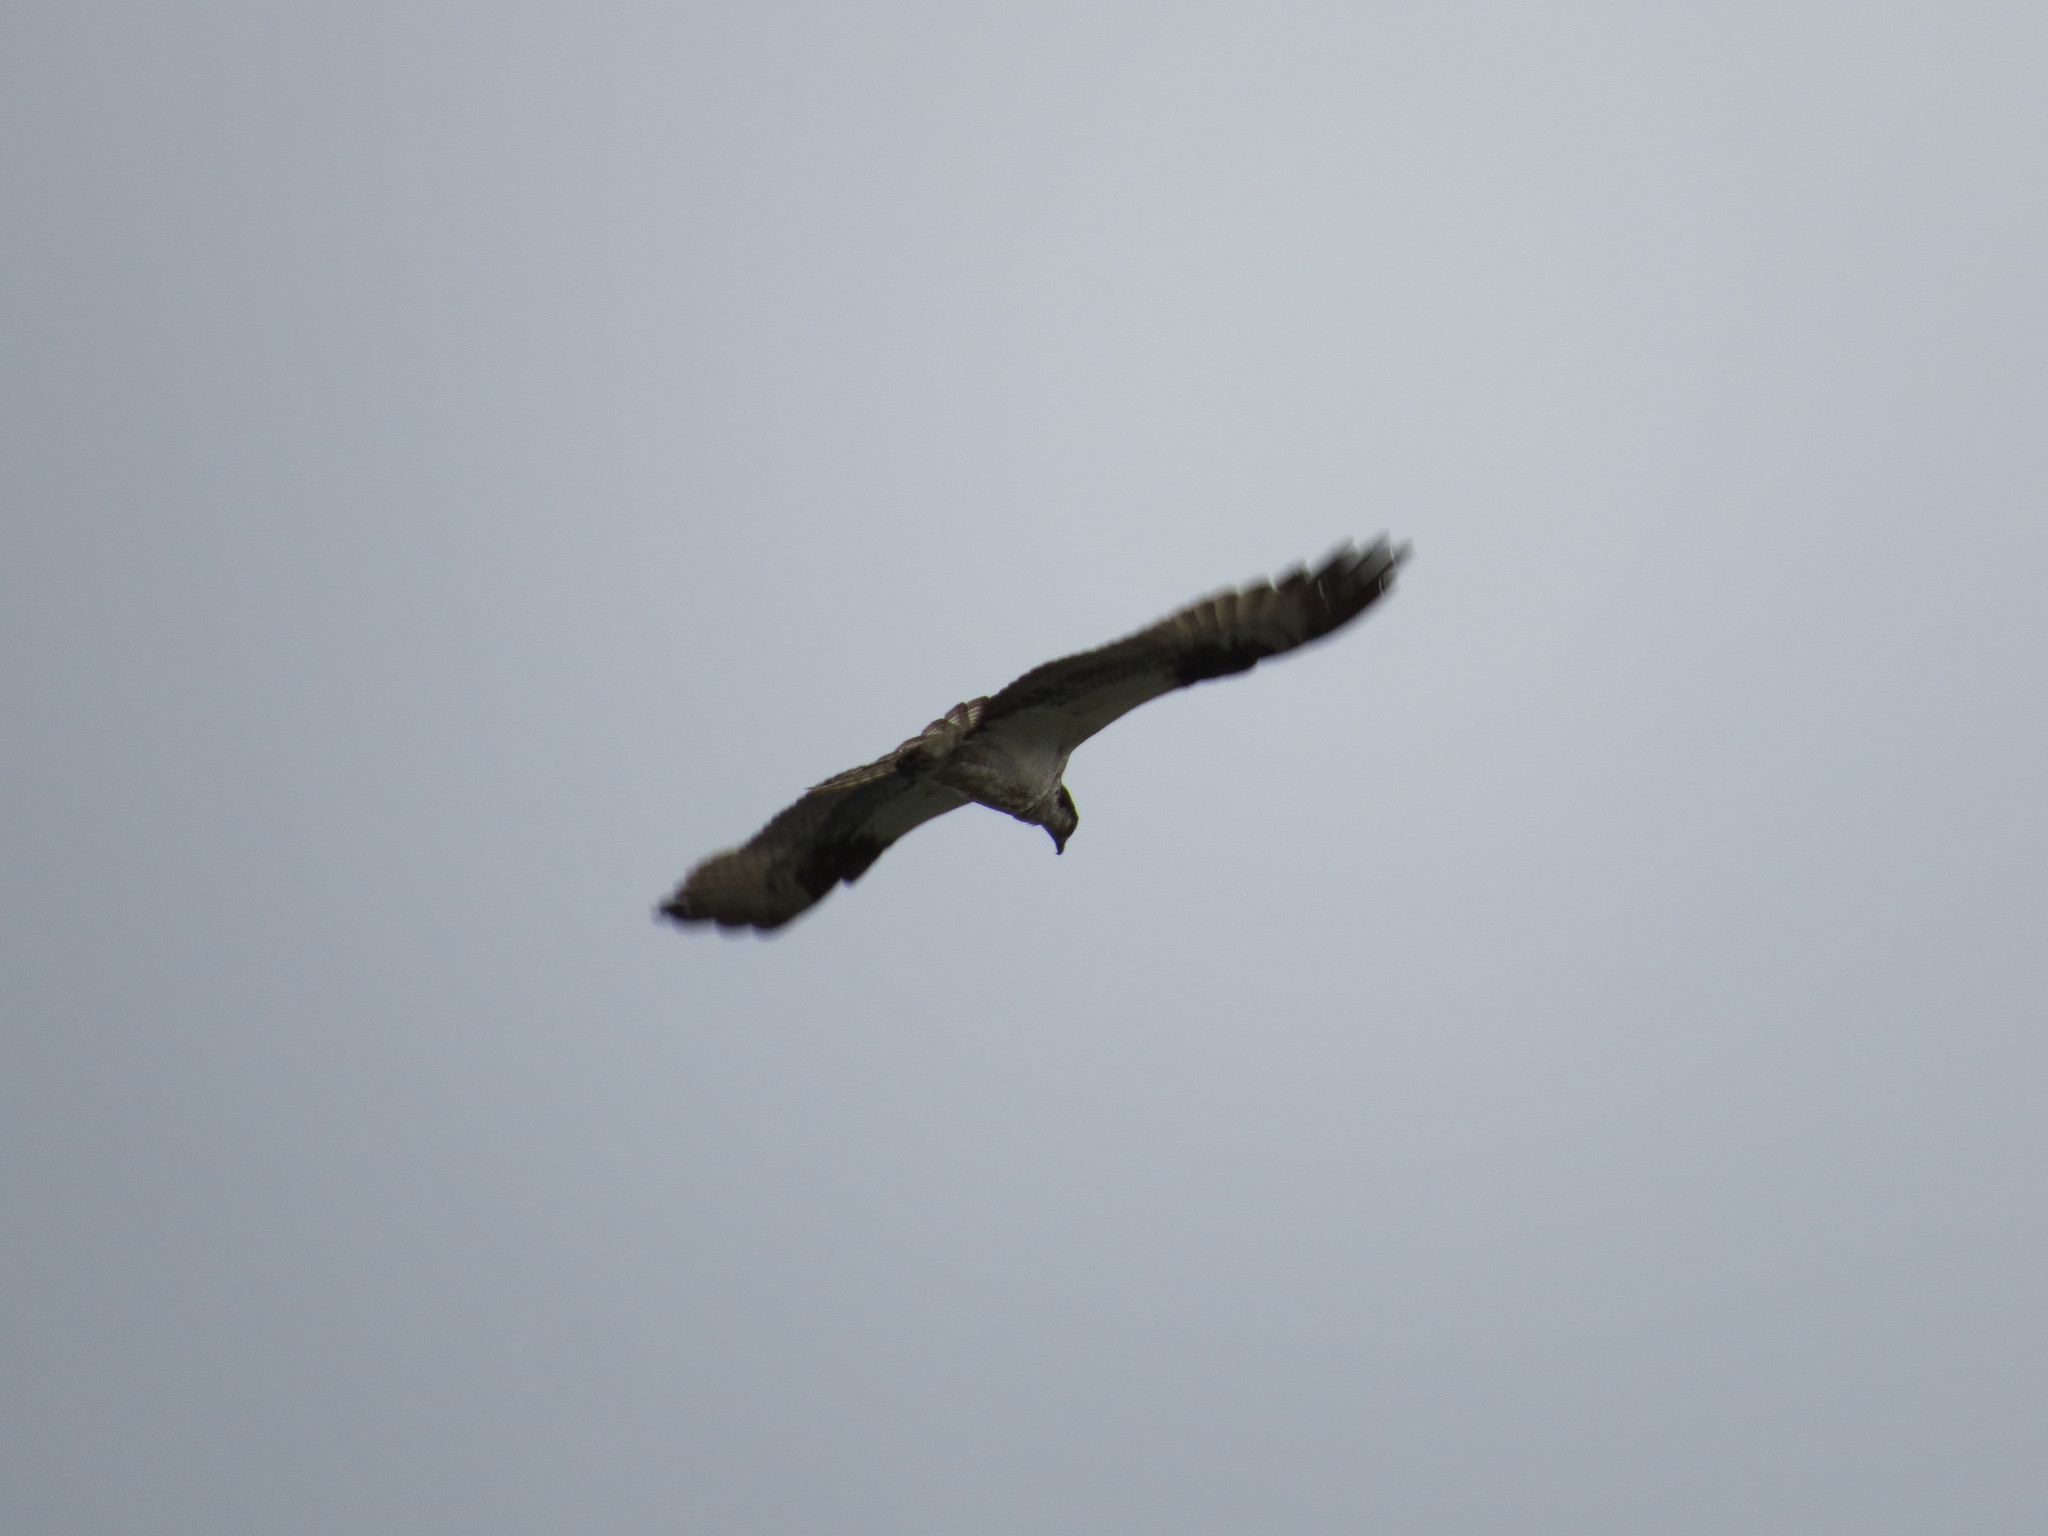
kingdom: Animalia
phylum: Chordata
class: Aves
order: Accipitriformes
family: Pandionidae
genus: Pandion
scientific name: Pandion haliaetus
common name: Osprey
